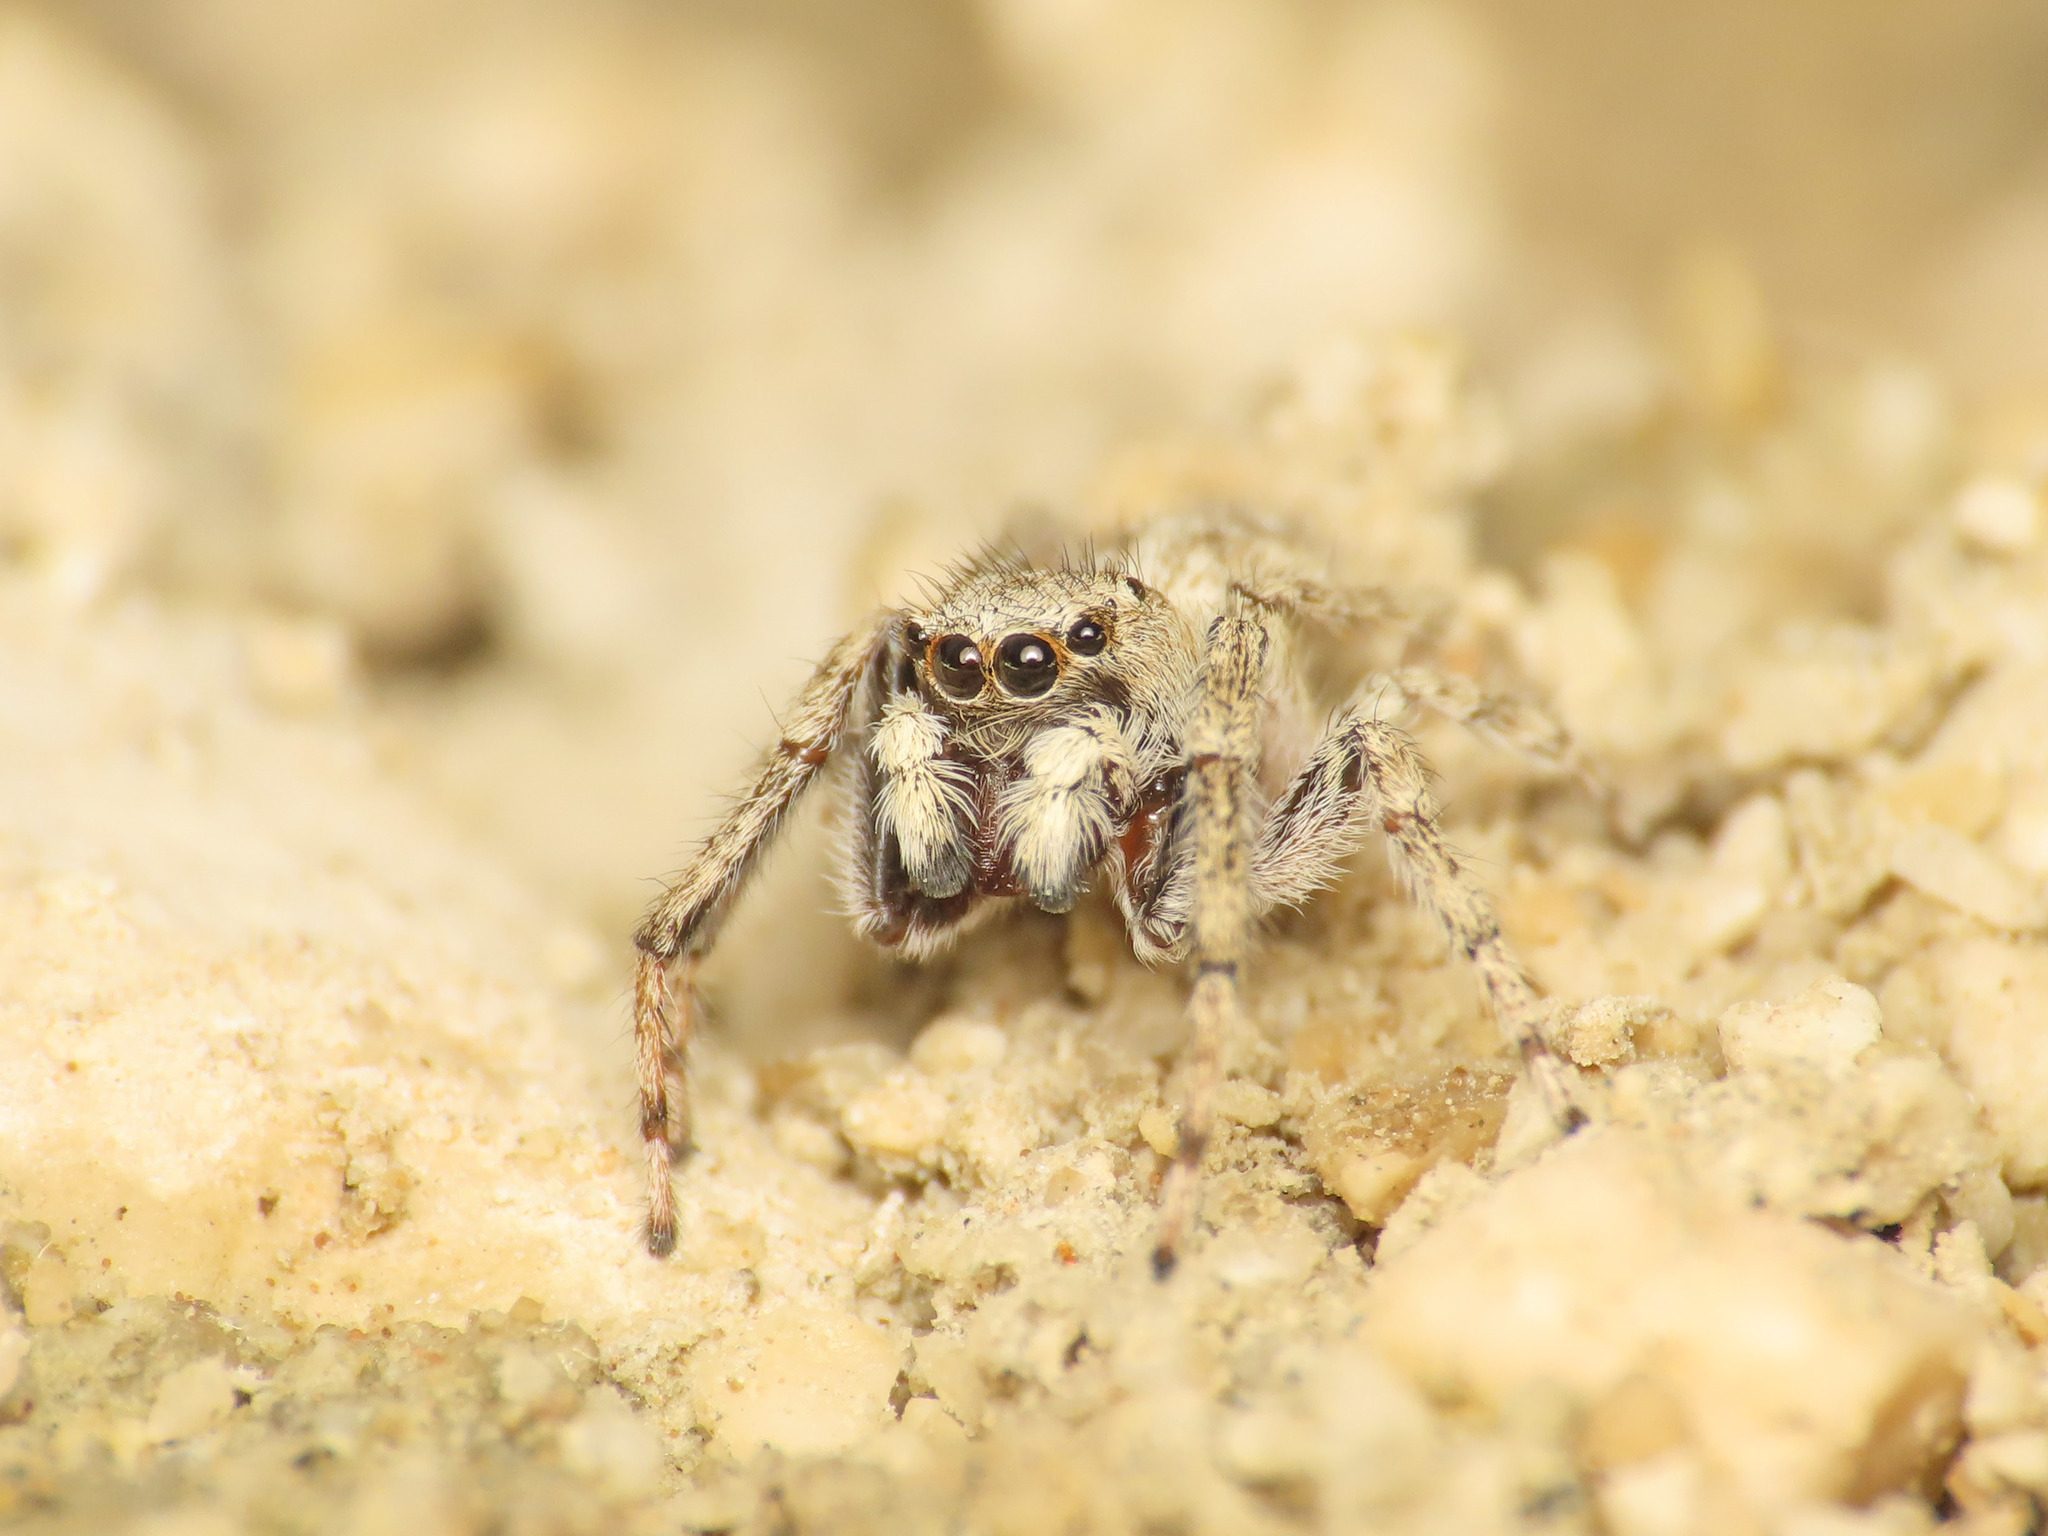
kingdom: Animalia
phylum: Arthropoda
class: Arachnida
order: Araneae
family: Salticidae
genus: Attulus
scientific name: Attulus distinguendus
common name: Distinguished jumper
